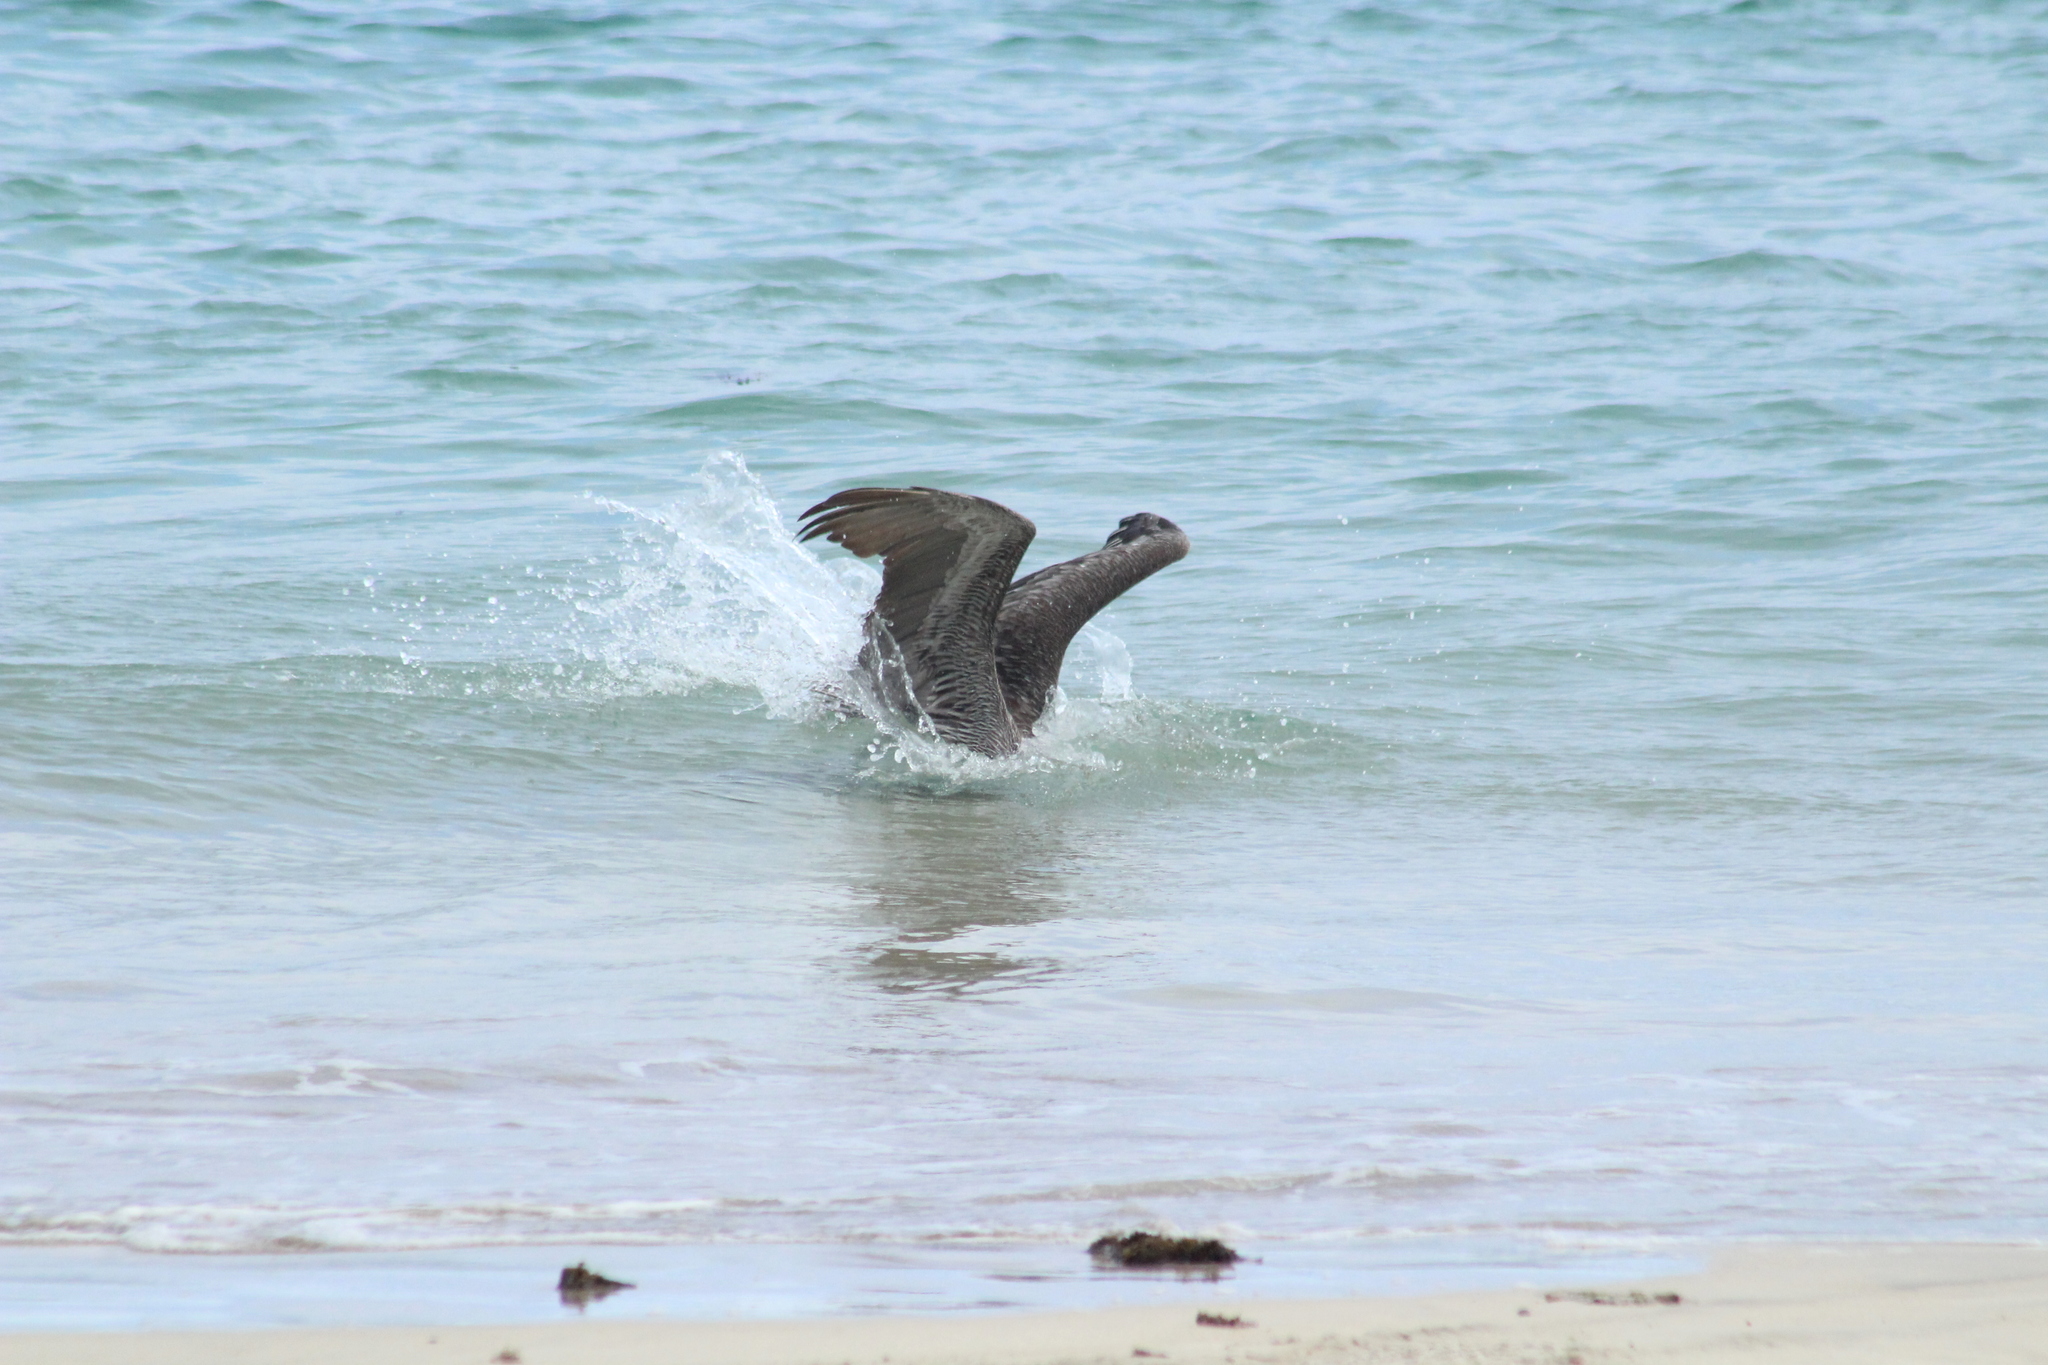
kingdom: Animalia
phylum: Chordata
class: Aves
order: Pelecaniformes
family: Pelecanidae
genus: Pelecanus
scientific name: Pelecanus occidentalis
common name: Brown pelican
